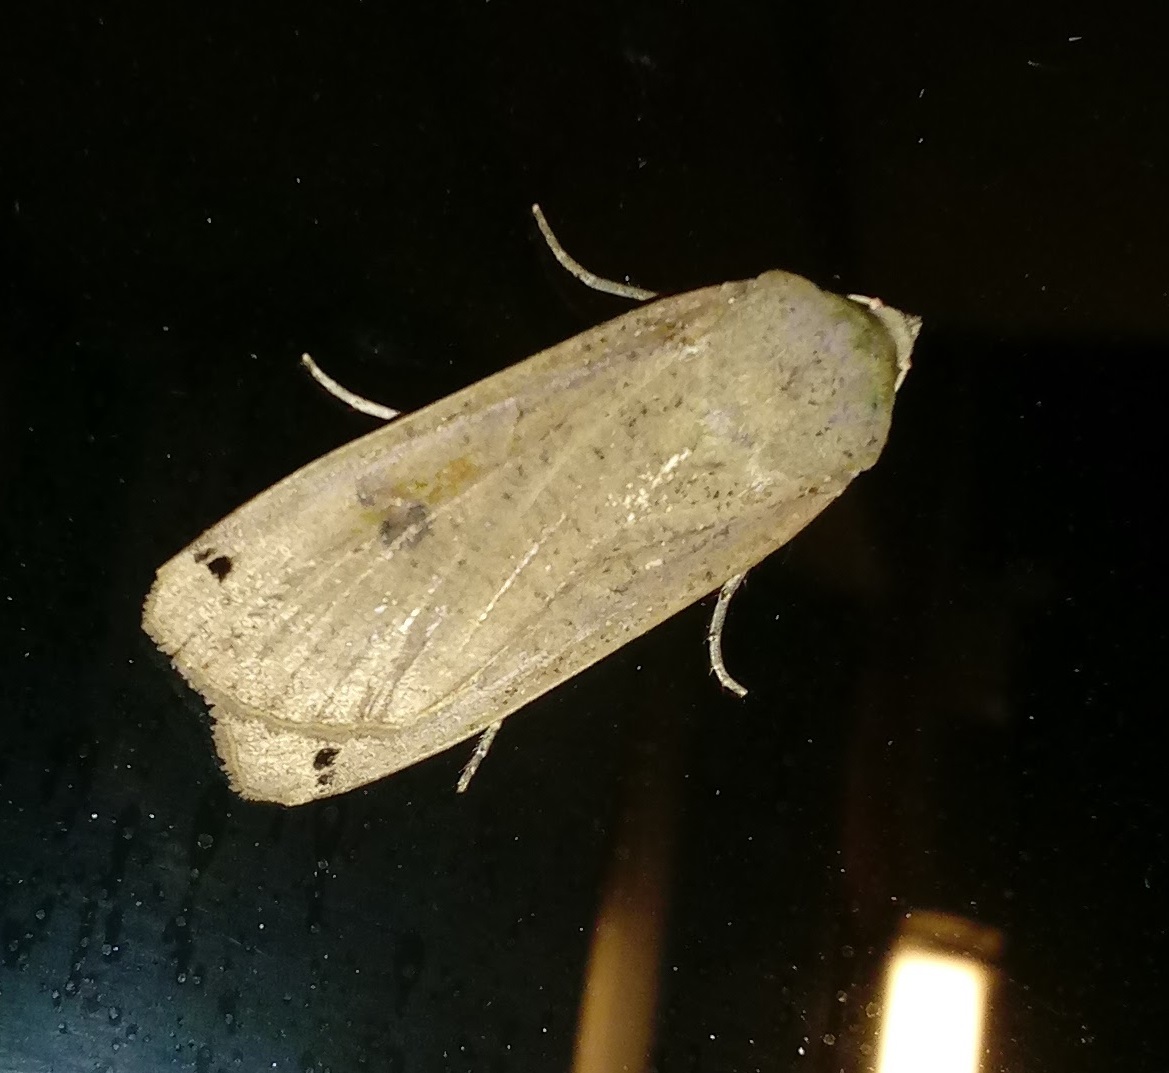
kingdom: Animalia
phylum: Arthropoda
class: Insecta
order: Lepidoptera
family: Noctuidae
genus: Noctua
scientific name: Noctua pronuba
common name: Large yellow underwing
